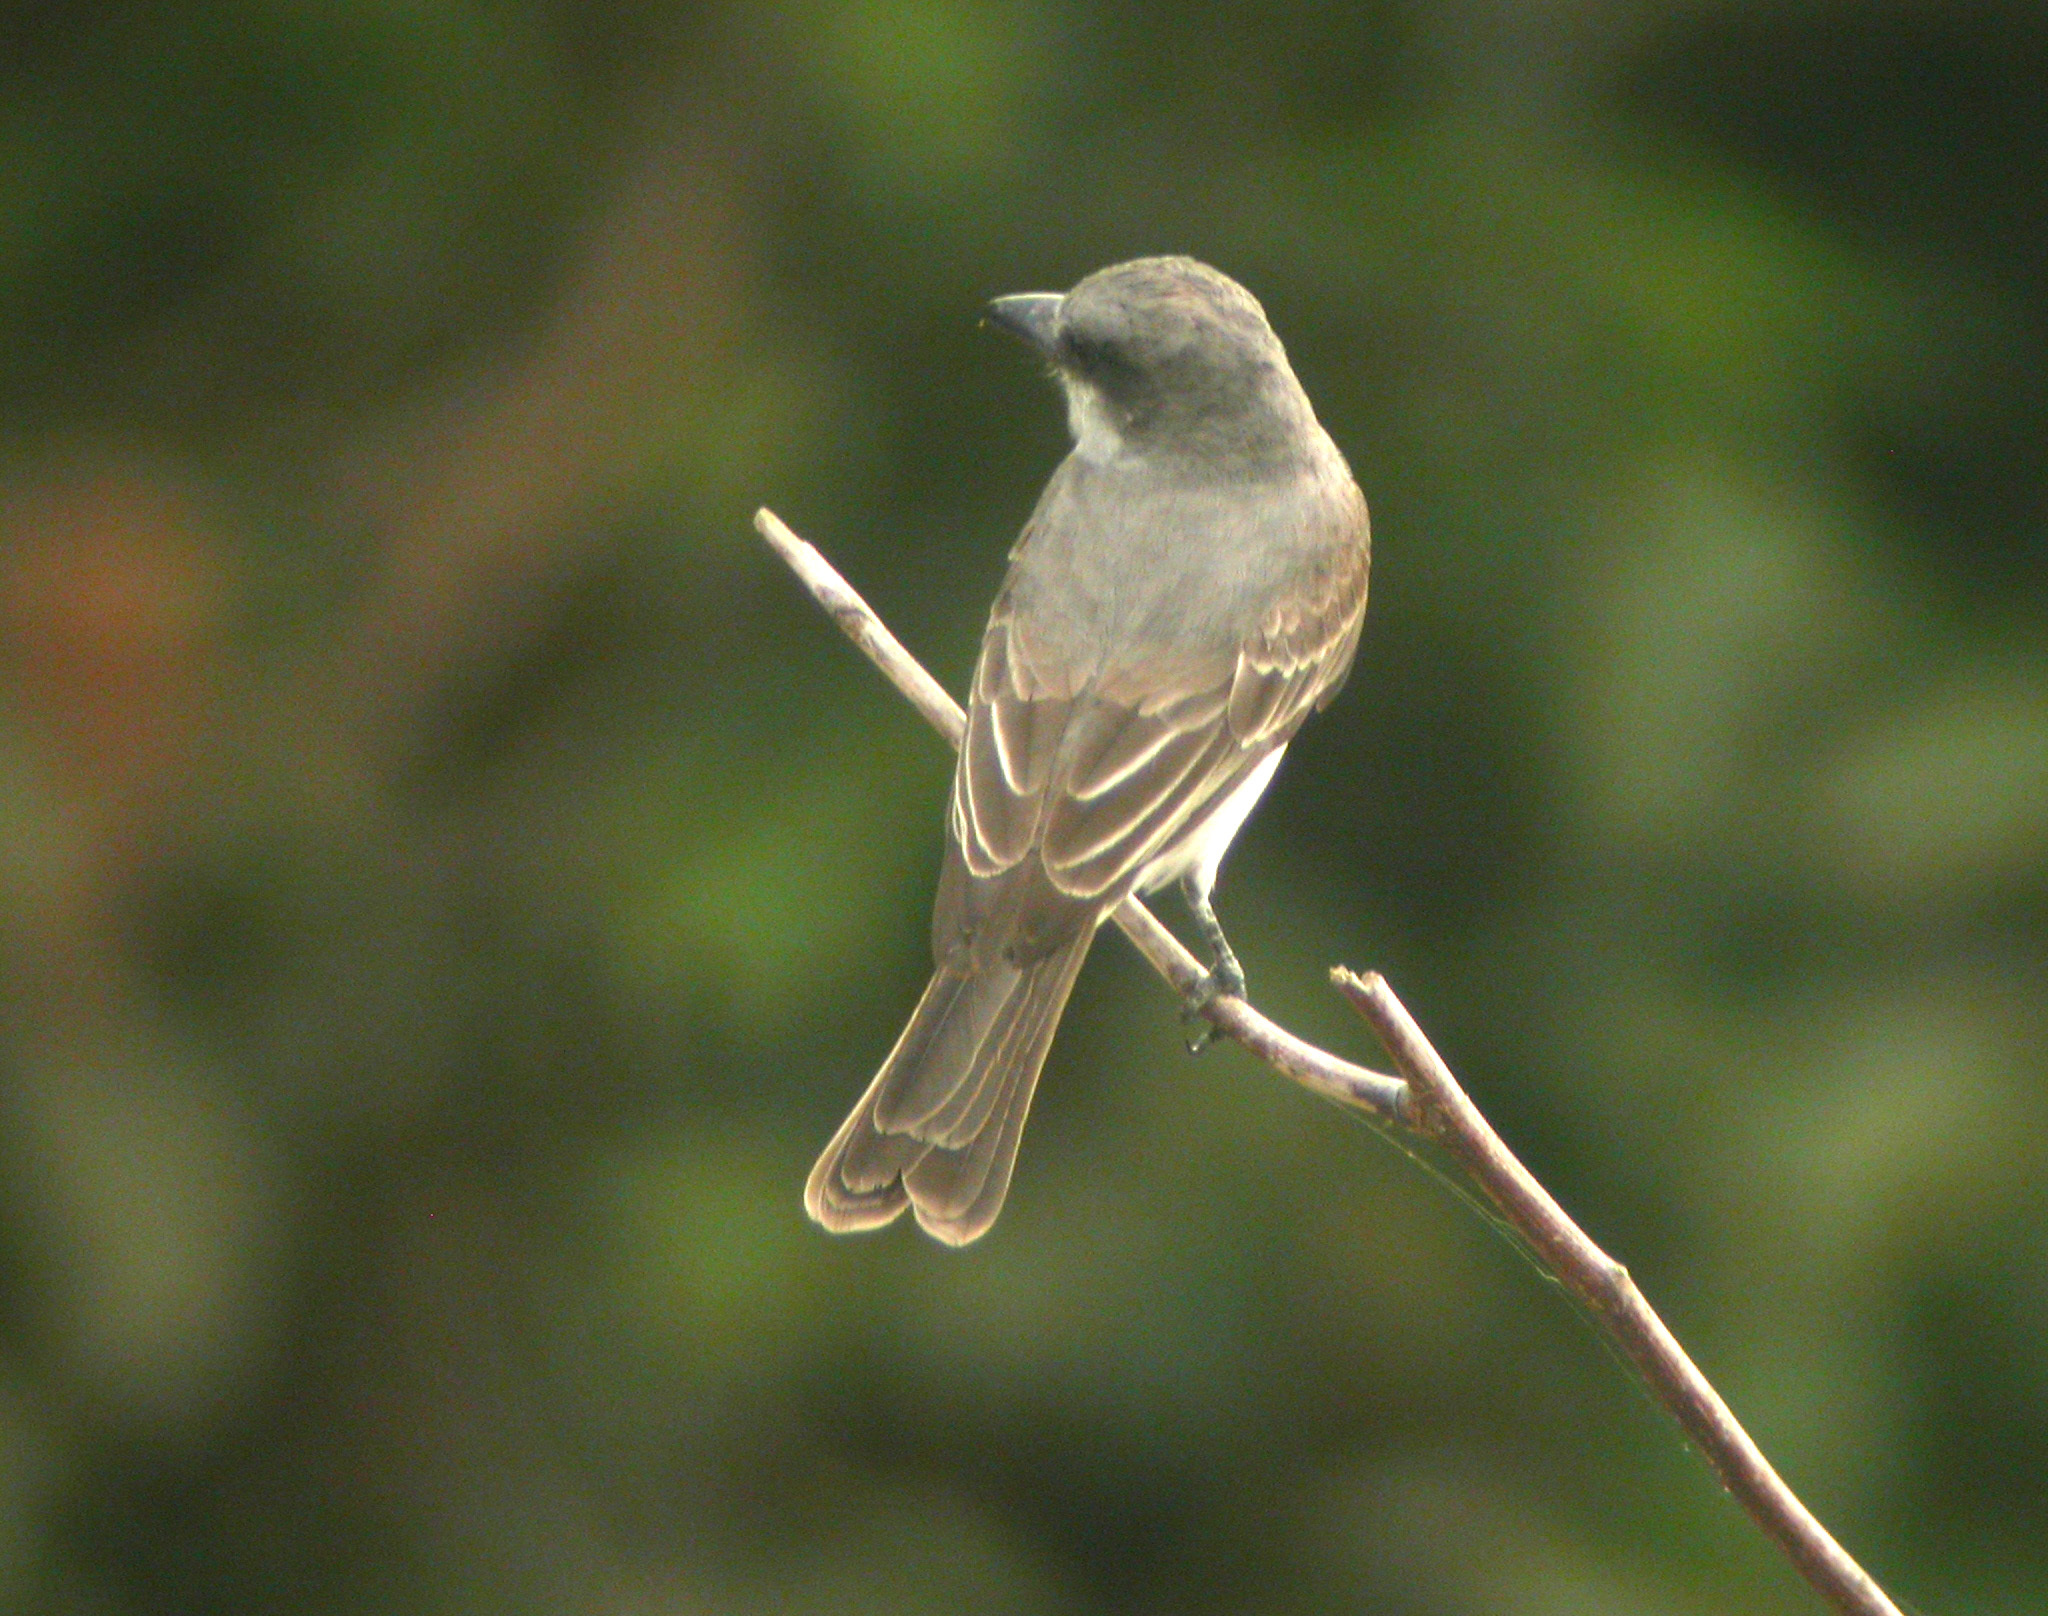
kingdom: Animalia
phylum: Chordata
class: Aves
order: Passeriformes
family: Tyrannidae
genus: Tyrannus
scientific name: Tyrannus dominicensis
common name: Gray kingbird
